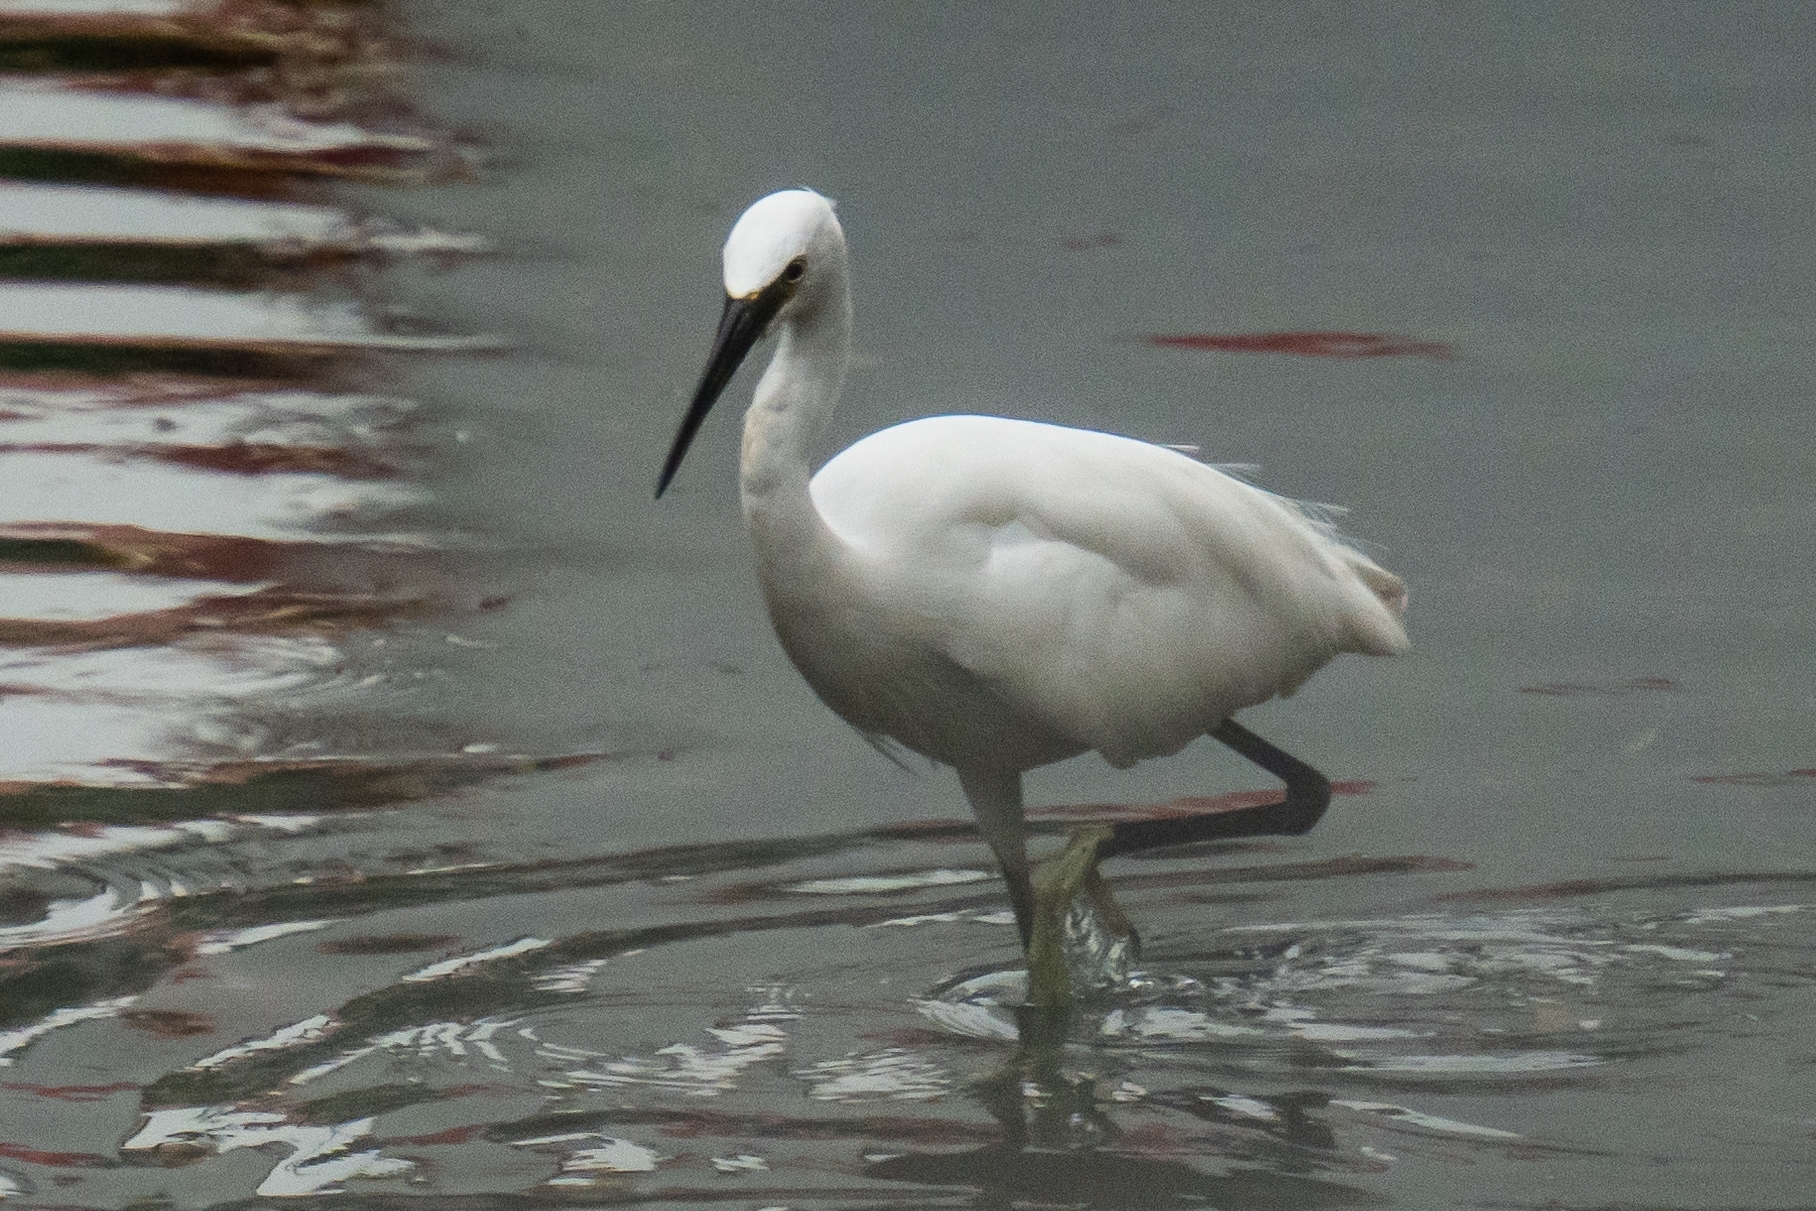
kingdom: Animalia
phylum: Chordata
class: Aves
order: Pelecaniformes
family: Ardeidae
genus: Egretta
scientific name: Egretta garzetta
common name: Little egret
